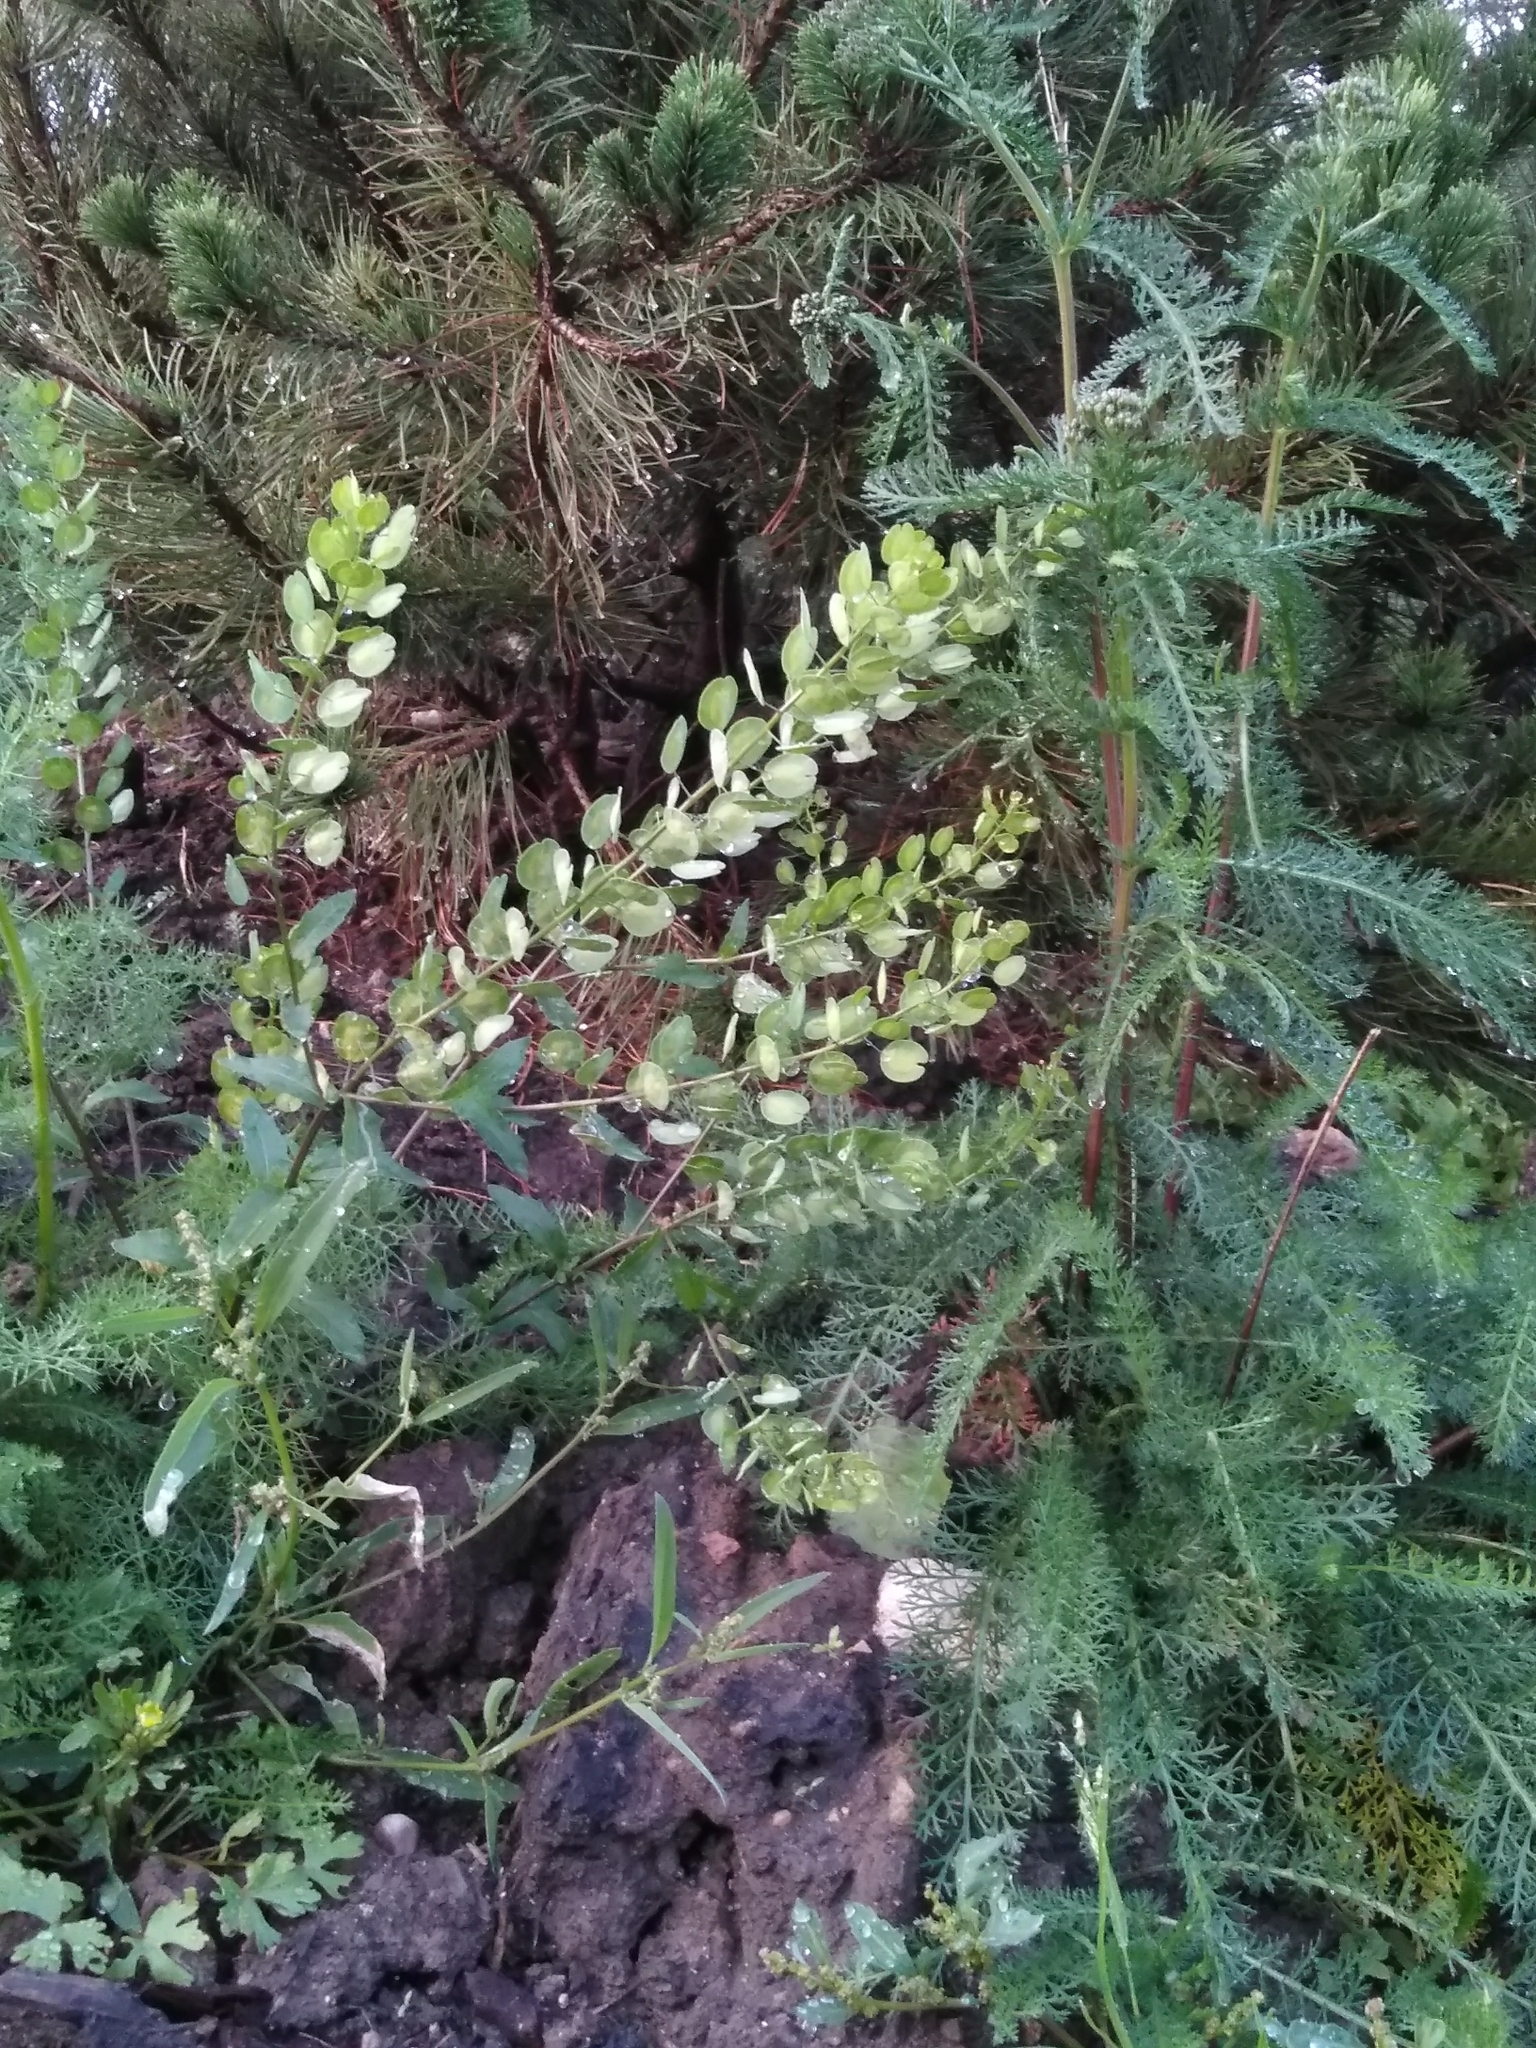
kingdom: Plantae
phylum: Tracheophyta
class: Magnoliopsida
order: Brassicales
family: Brassicaceae
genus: Thlaspi
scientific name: Thlaspi arvense
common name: Field pennycress
